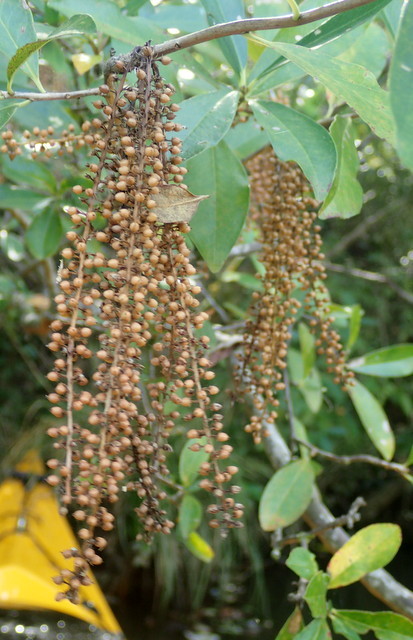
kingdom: Plantae
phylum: Tracheophyta
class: Magnoliopsida
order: Ericales
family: Cyrillaceae
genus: Cyrilla
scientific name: Cyrilla racemiflora
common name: Black titi
